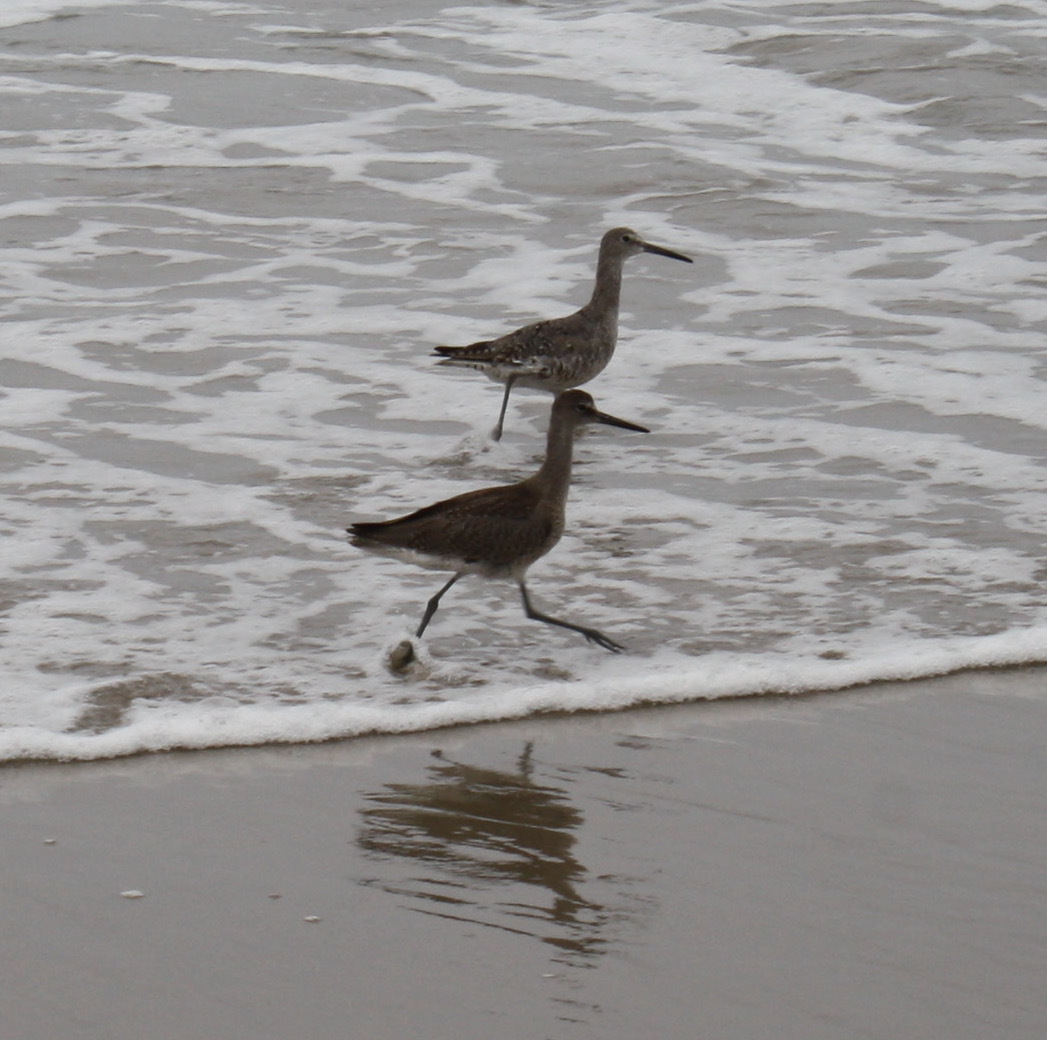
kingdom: Animalia
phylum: Chordata
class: Aves
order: Charadriiformes
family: Scolopacidae
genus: Tringa
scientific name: Tringa semipalmata
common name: Willet
